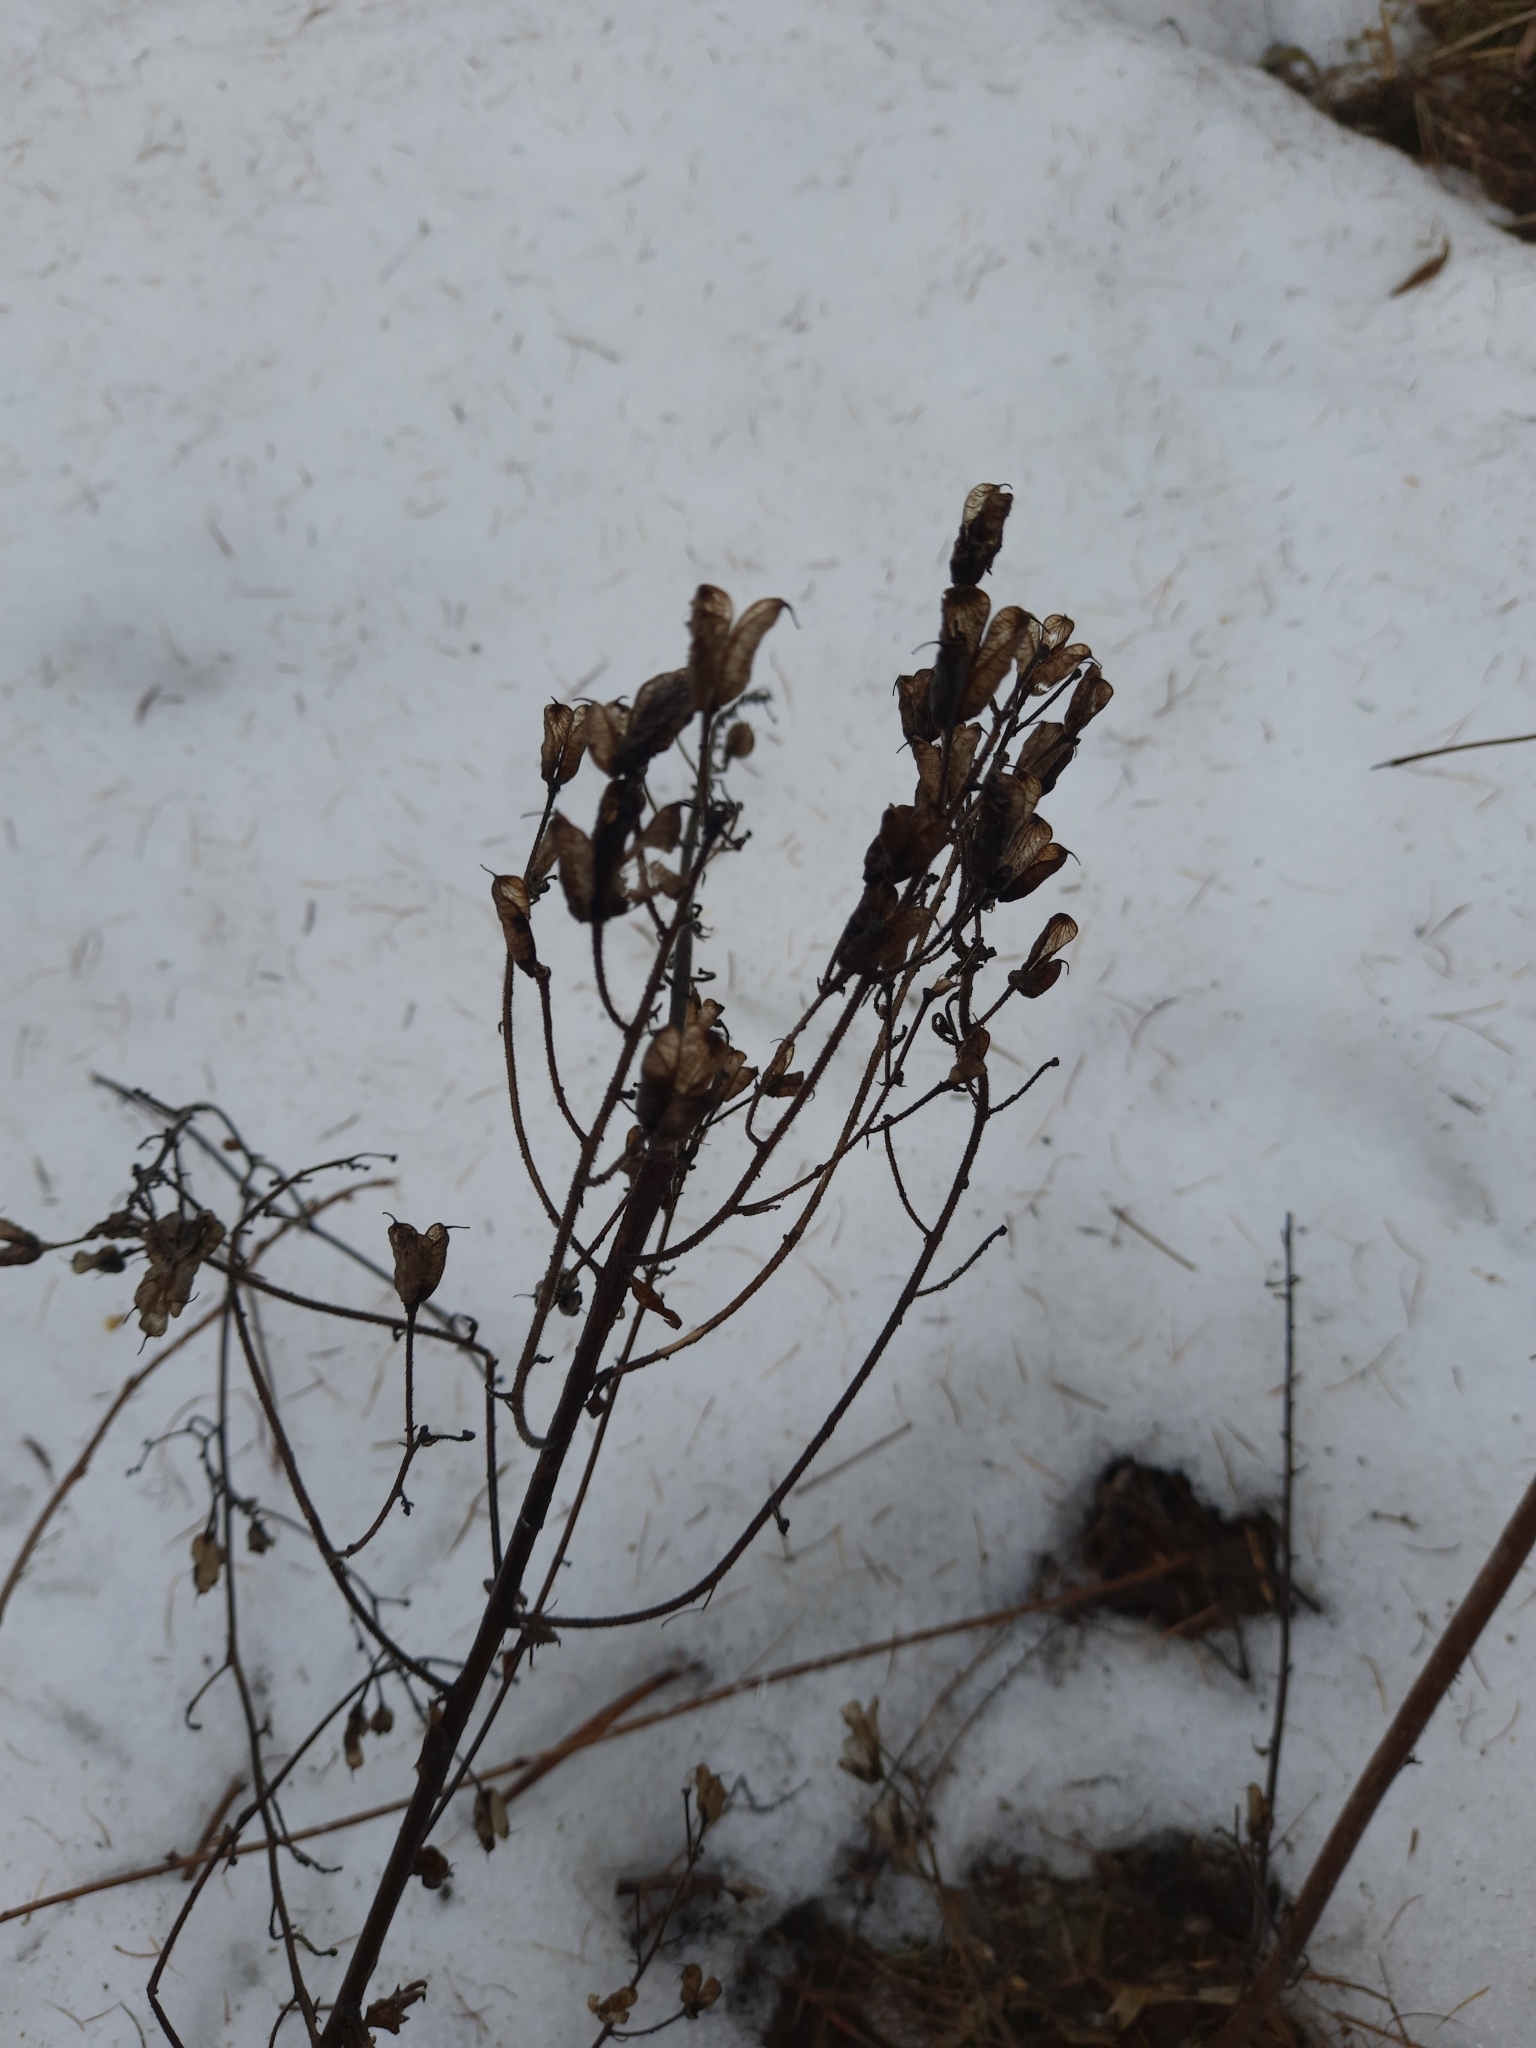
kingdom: Plantae
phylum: Tracheophyta
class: Magnoliopsida
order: Ranunculales
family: Ranunculaceae
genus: Aconitum
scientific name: Aconitum septentrionale
